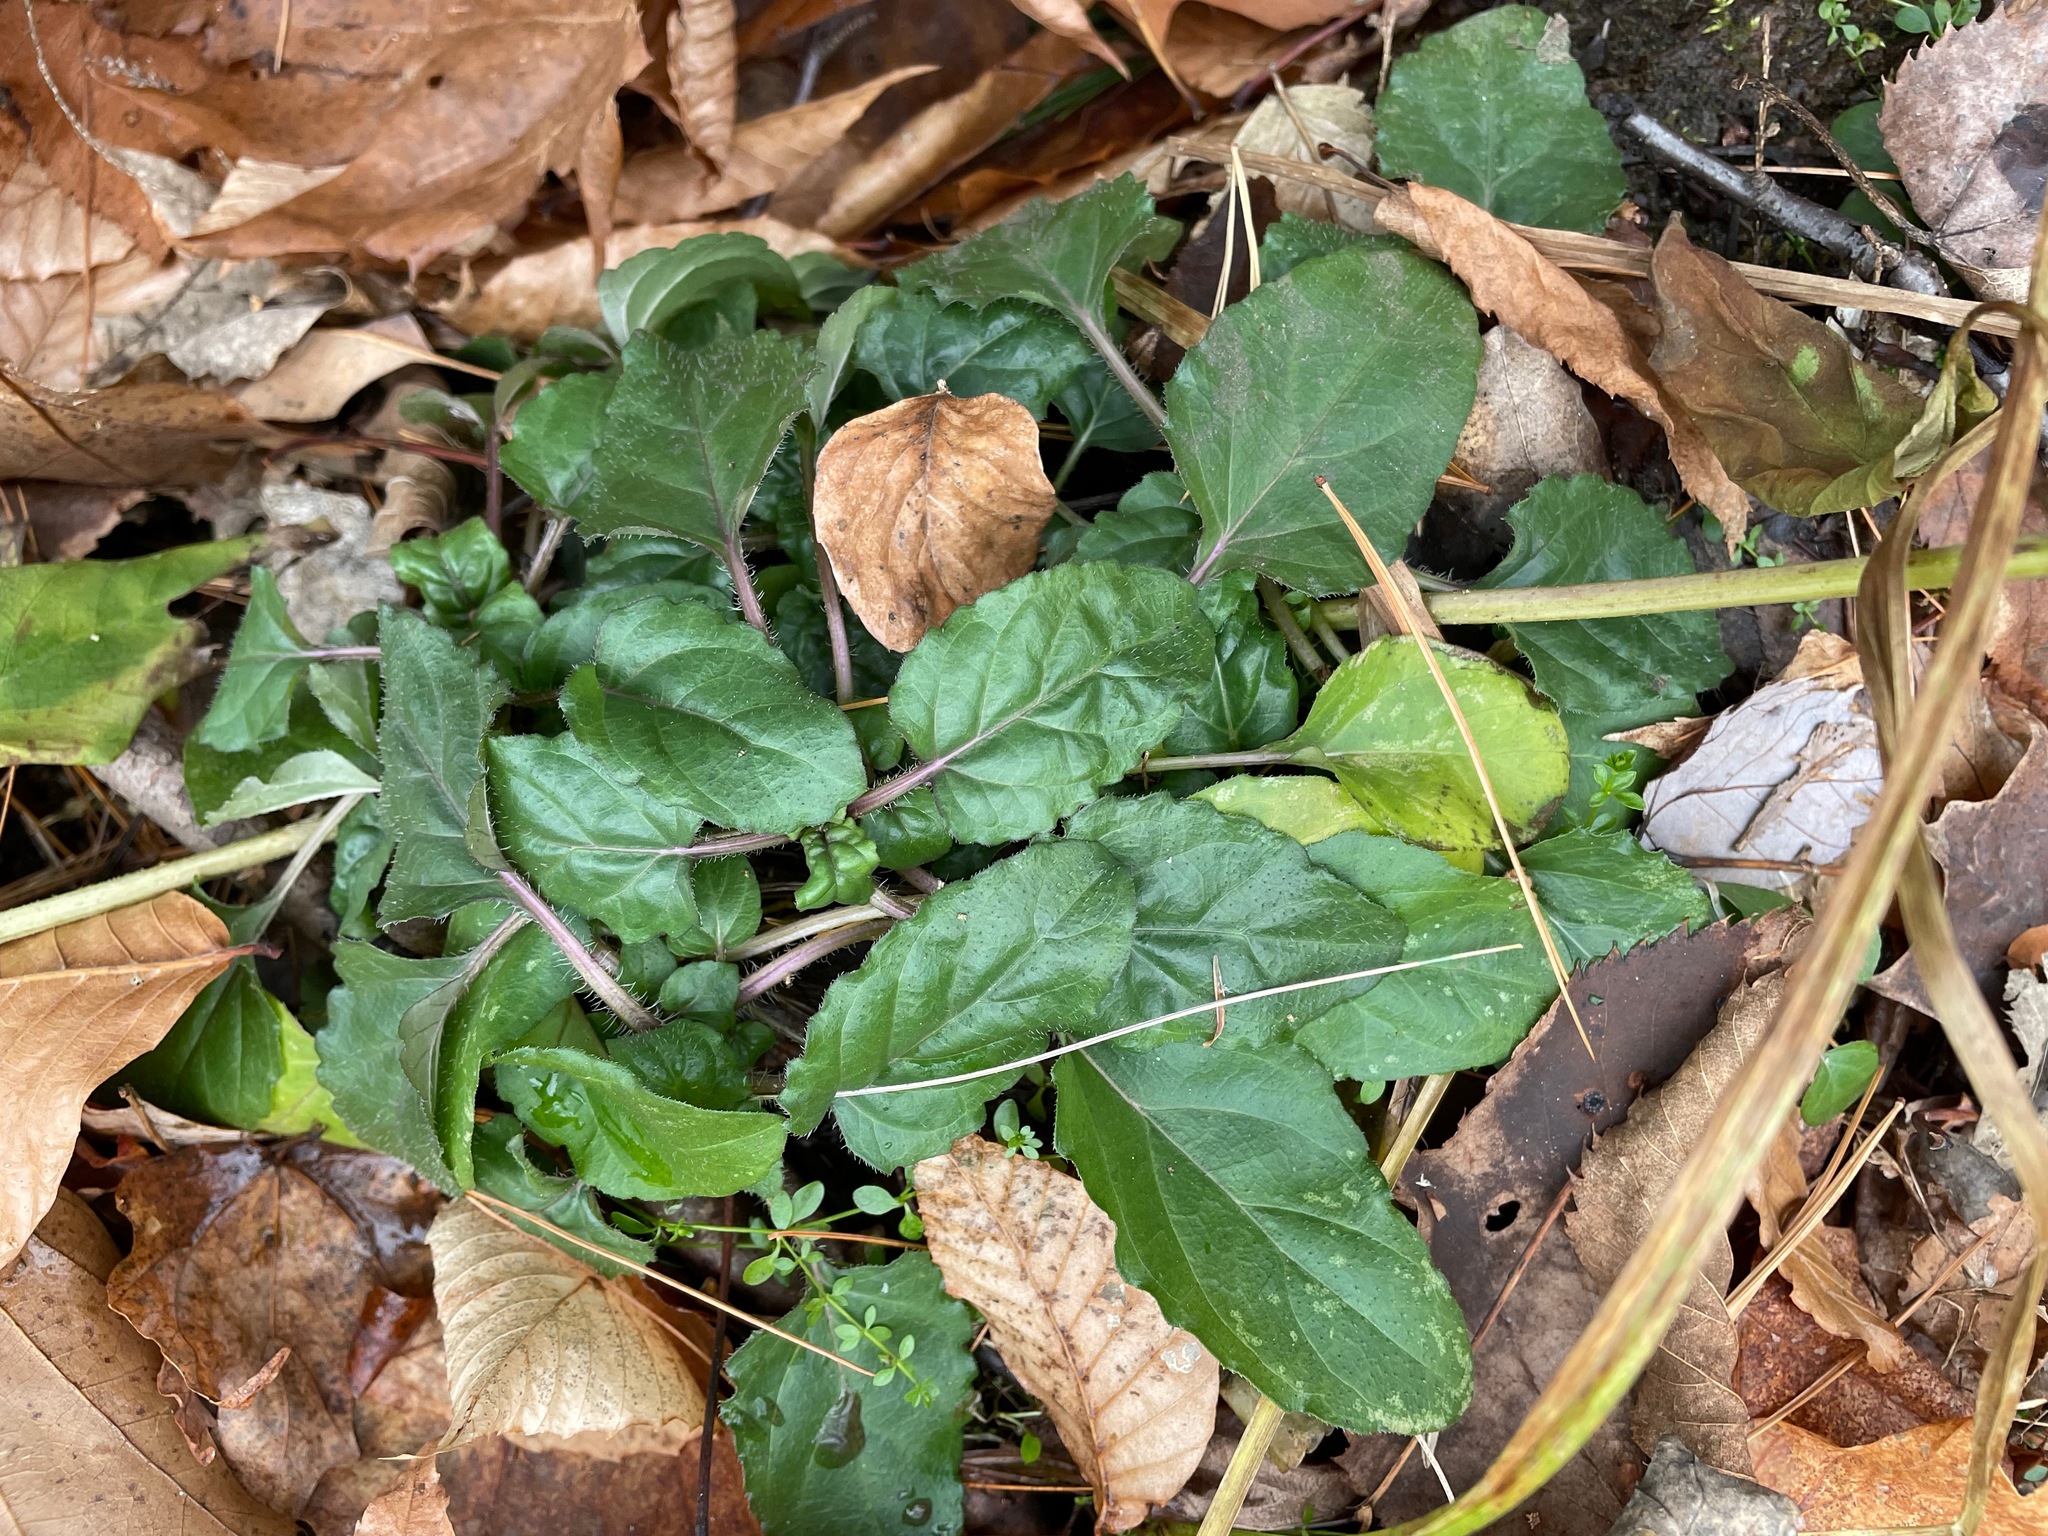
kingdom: Plantae
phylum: Tracheophyta
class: Magnoliopsida
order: Lamiales
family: Lamiaceae
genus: Prunella
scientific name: Prunella vulgaris
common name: Heal-all
